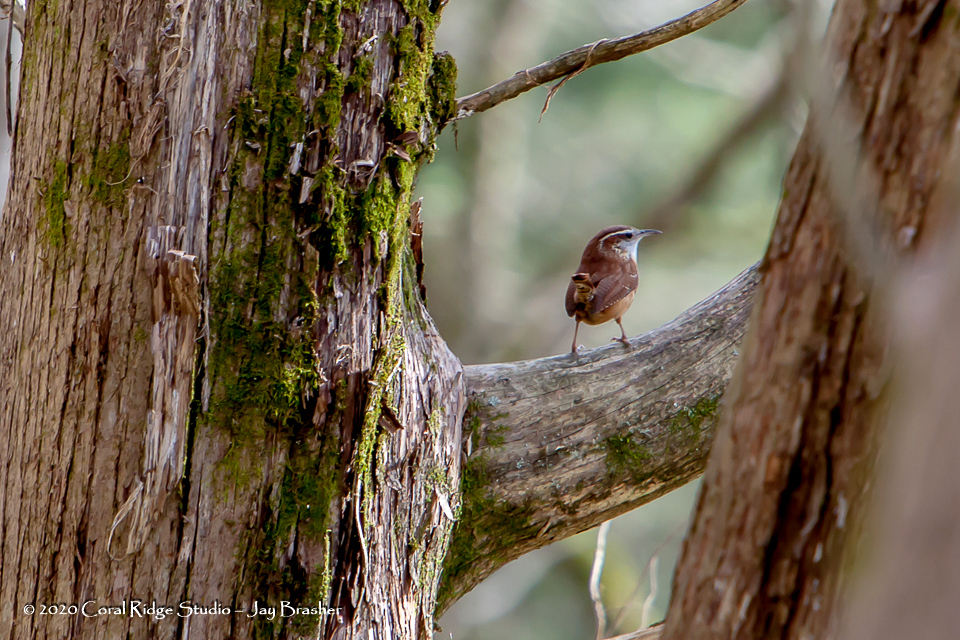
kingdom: Animalia
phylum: Chordata
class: Aves
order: Passeriformes
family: Troglodytidae
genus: Thryothorus
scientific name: Thryothorus ludovicianus
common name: Carolina wren
